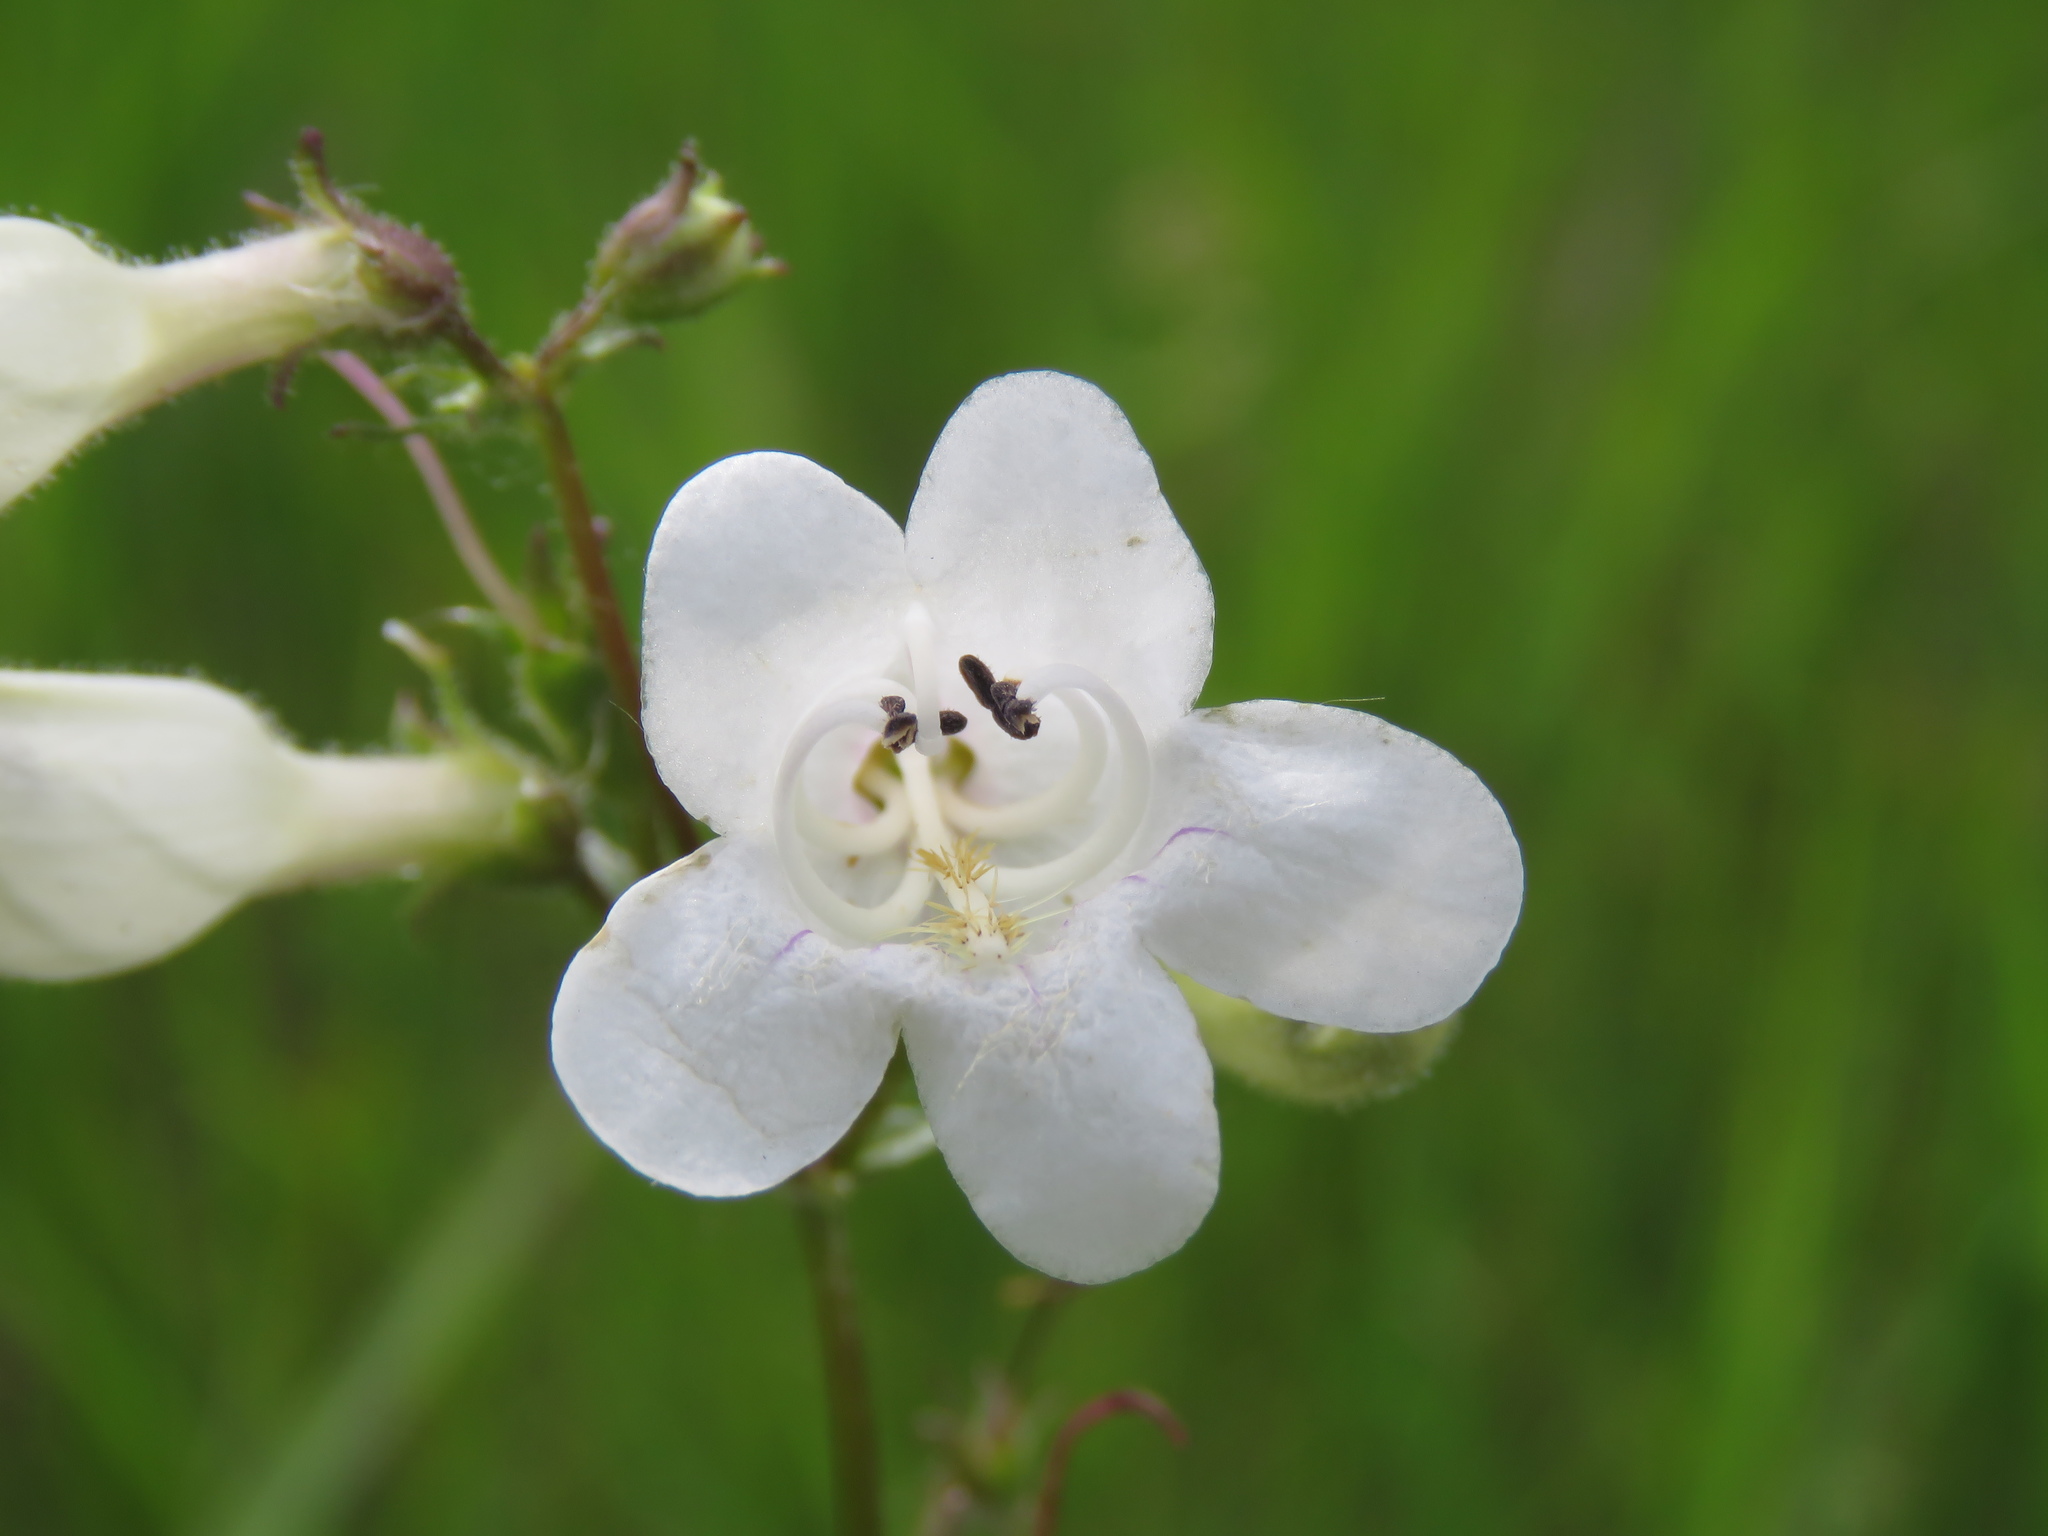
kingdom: Plantae
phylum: Tracheophyta
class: Magnoliopsida
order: Lamiales
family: Plantaginaceae
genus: Penstemon
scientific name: Penstemon digitalis
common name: Foxglove beardtongue
